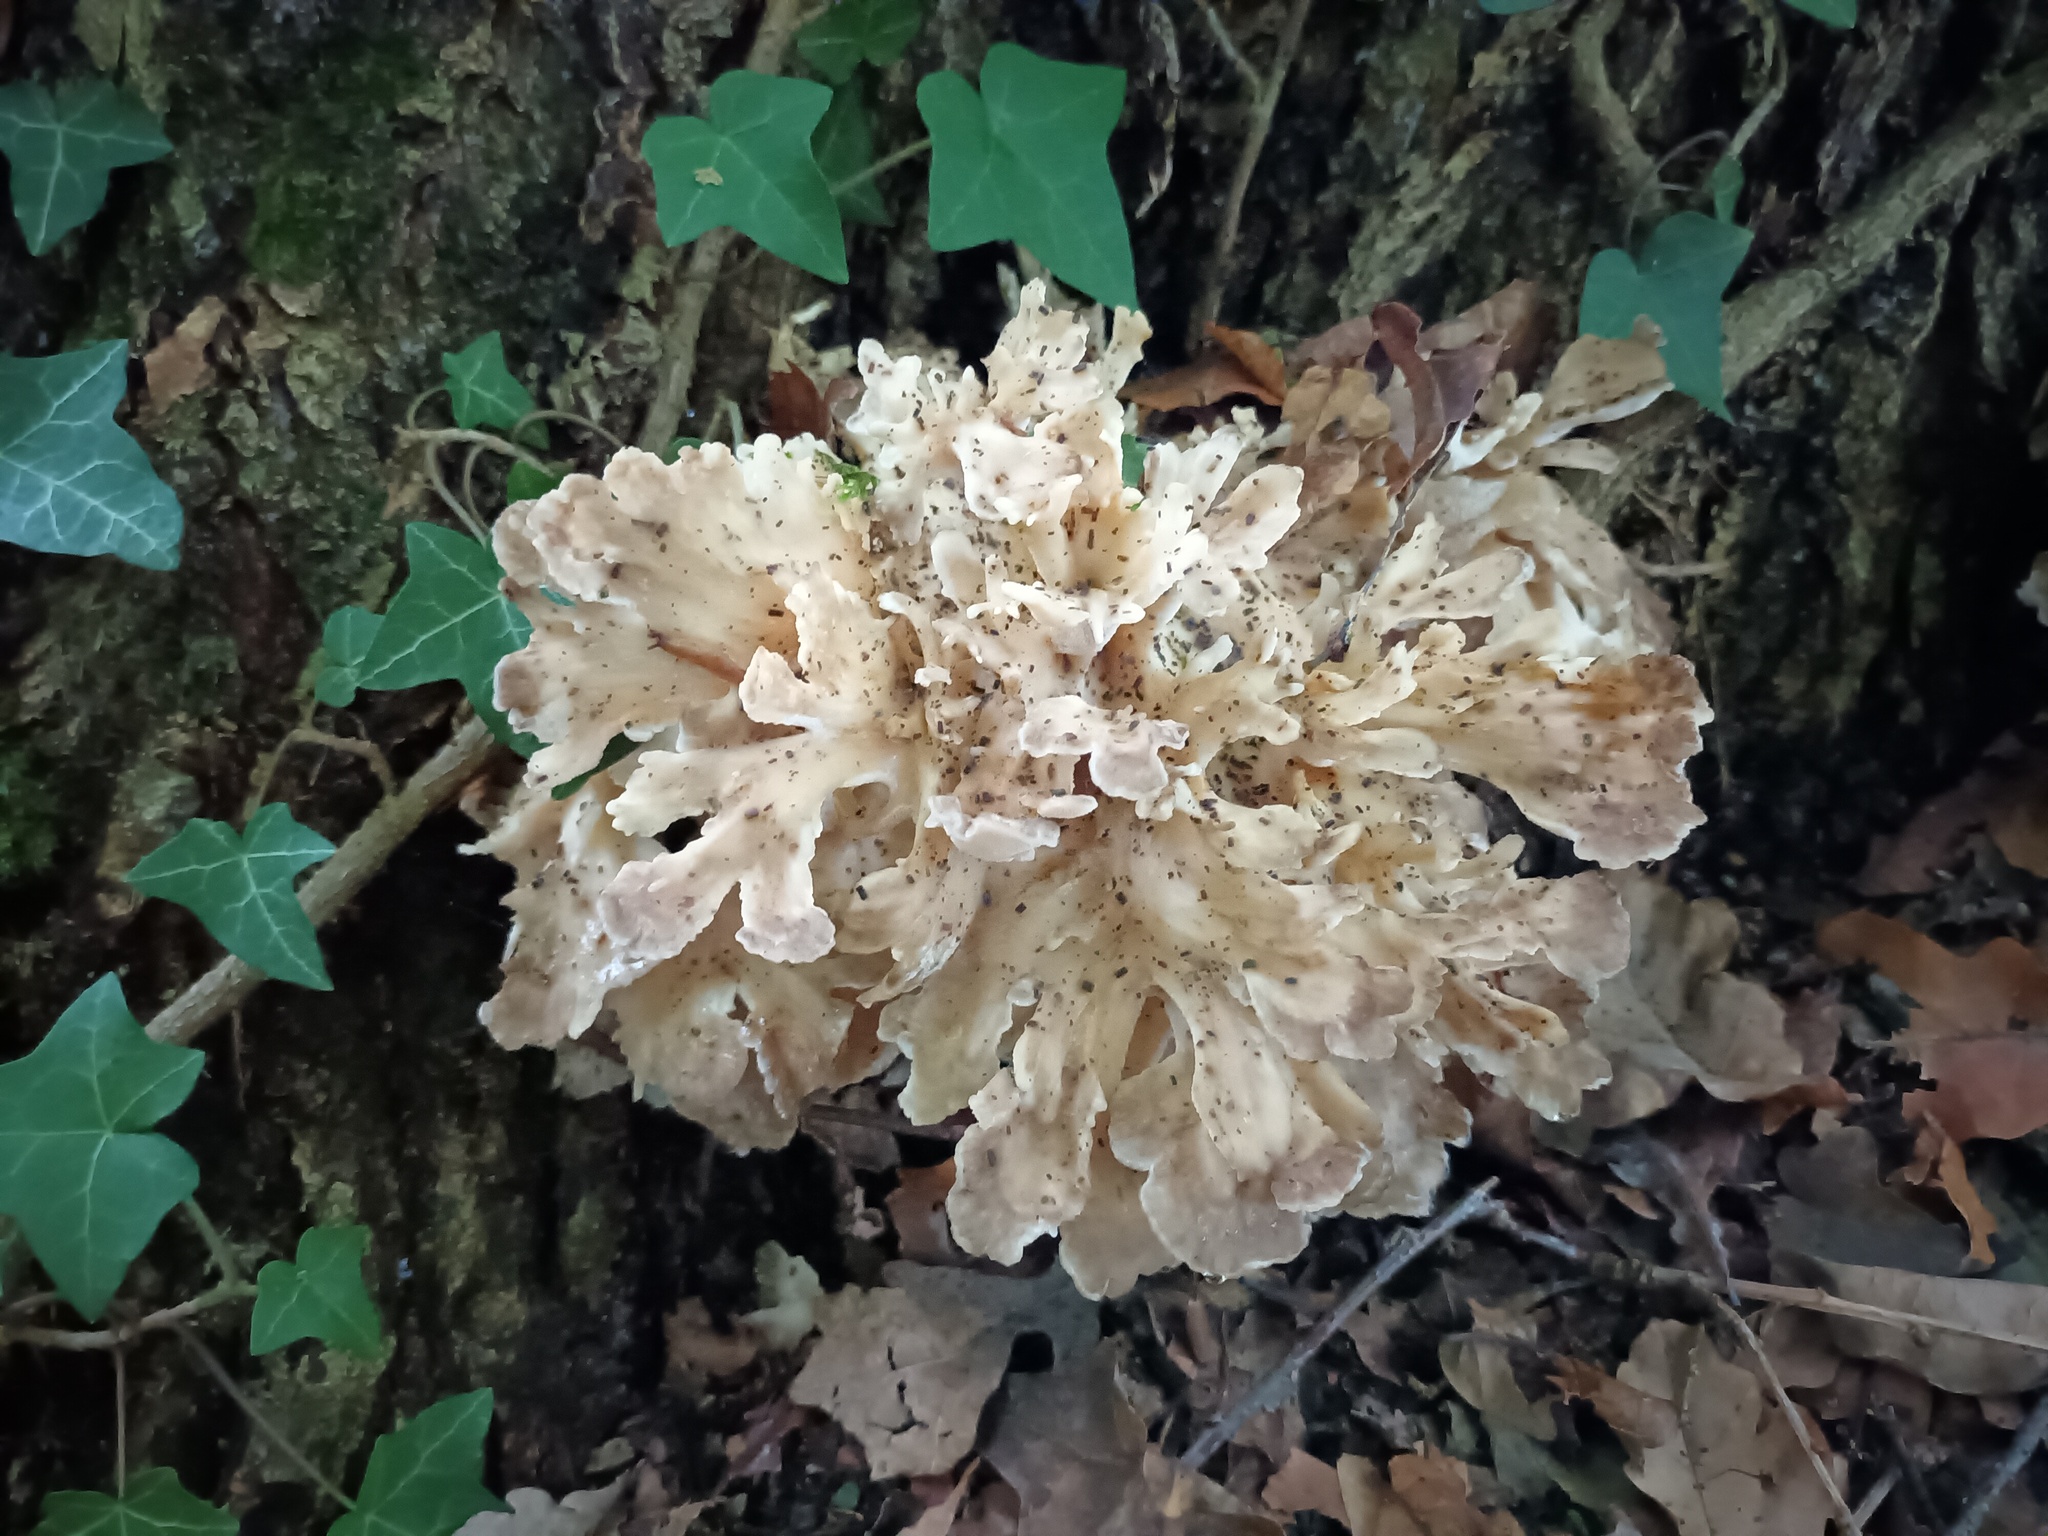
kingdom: Fungi
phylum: Basidiomycota
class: Agaricomycetes
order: Polyporales
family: Grifolaceae
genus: Grifola
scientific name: Grifola frondosa
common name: Hen of the woods
